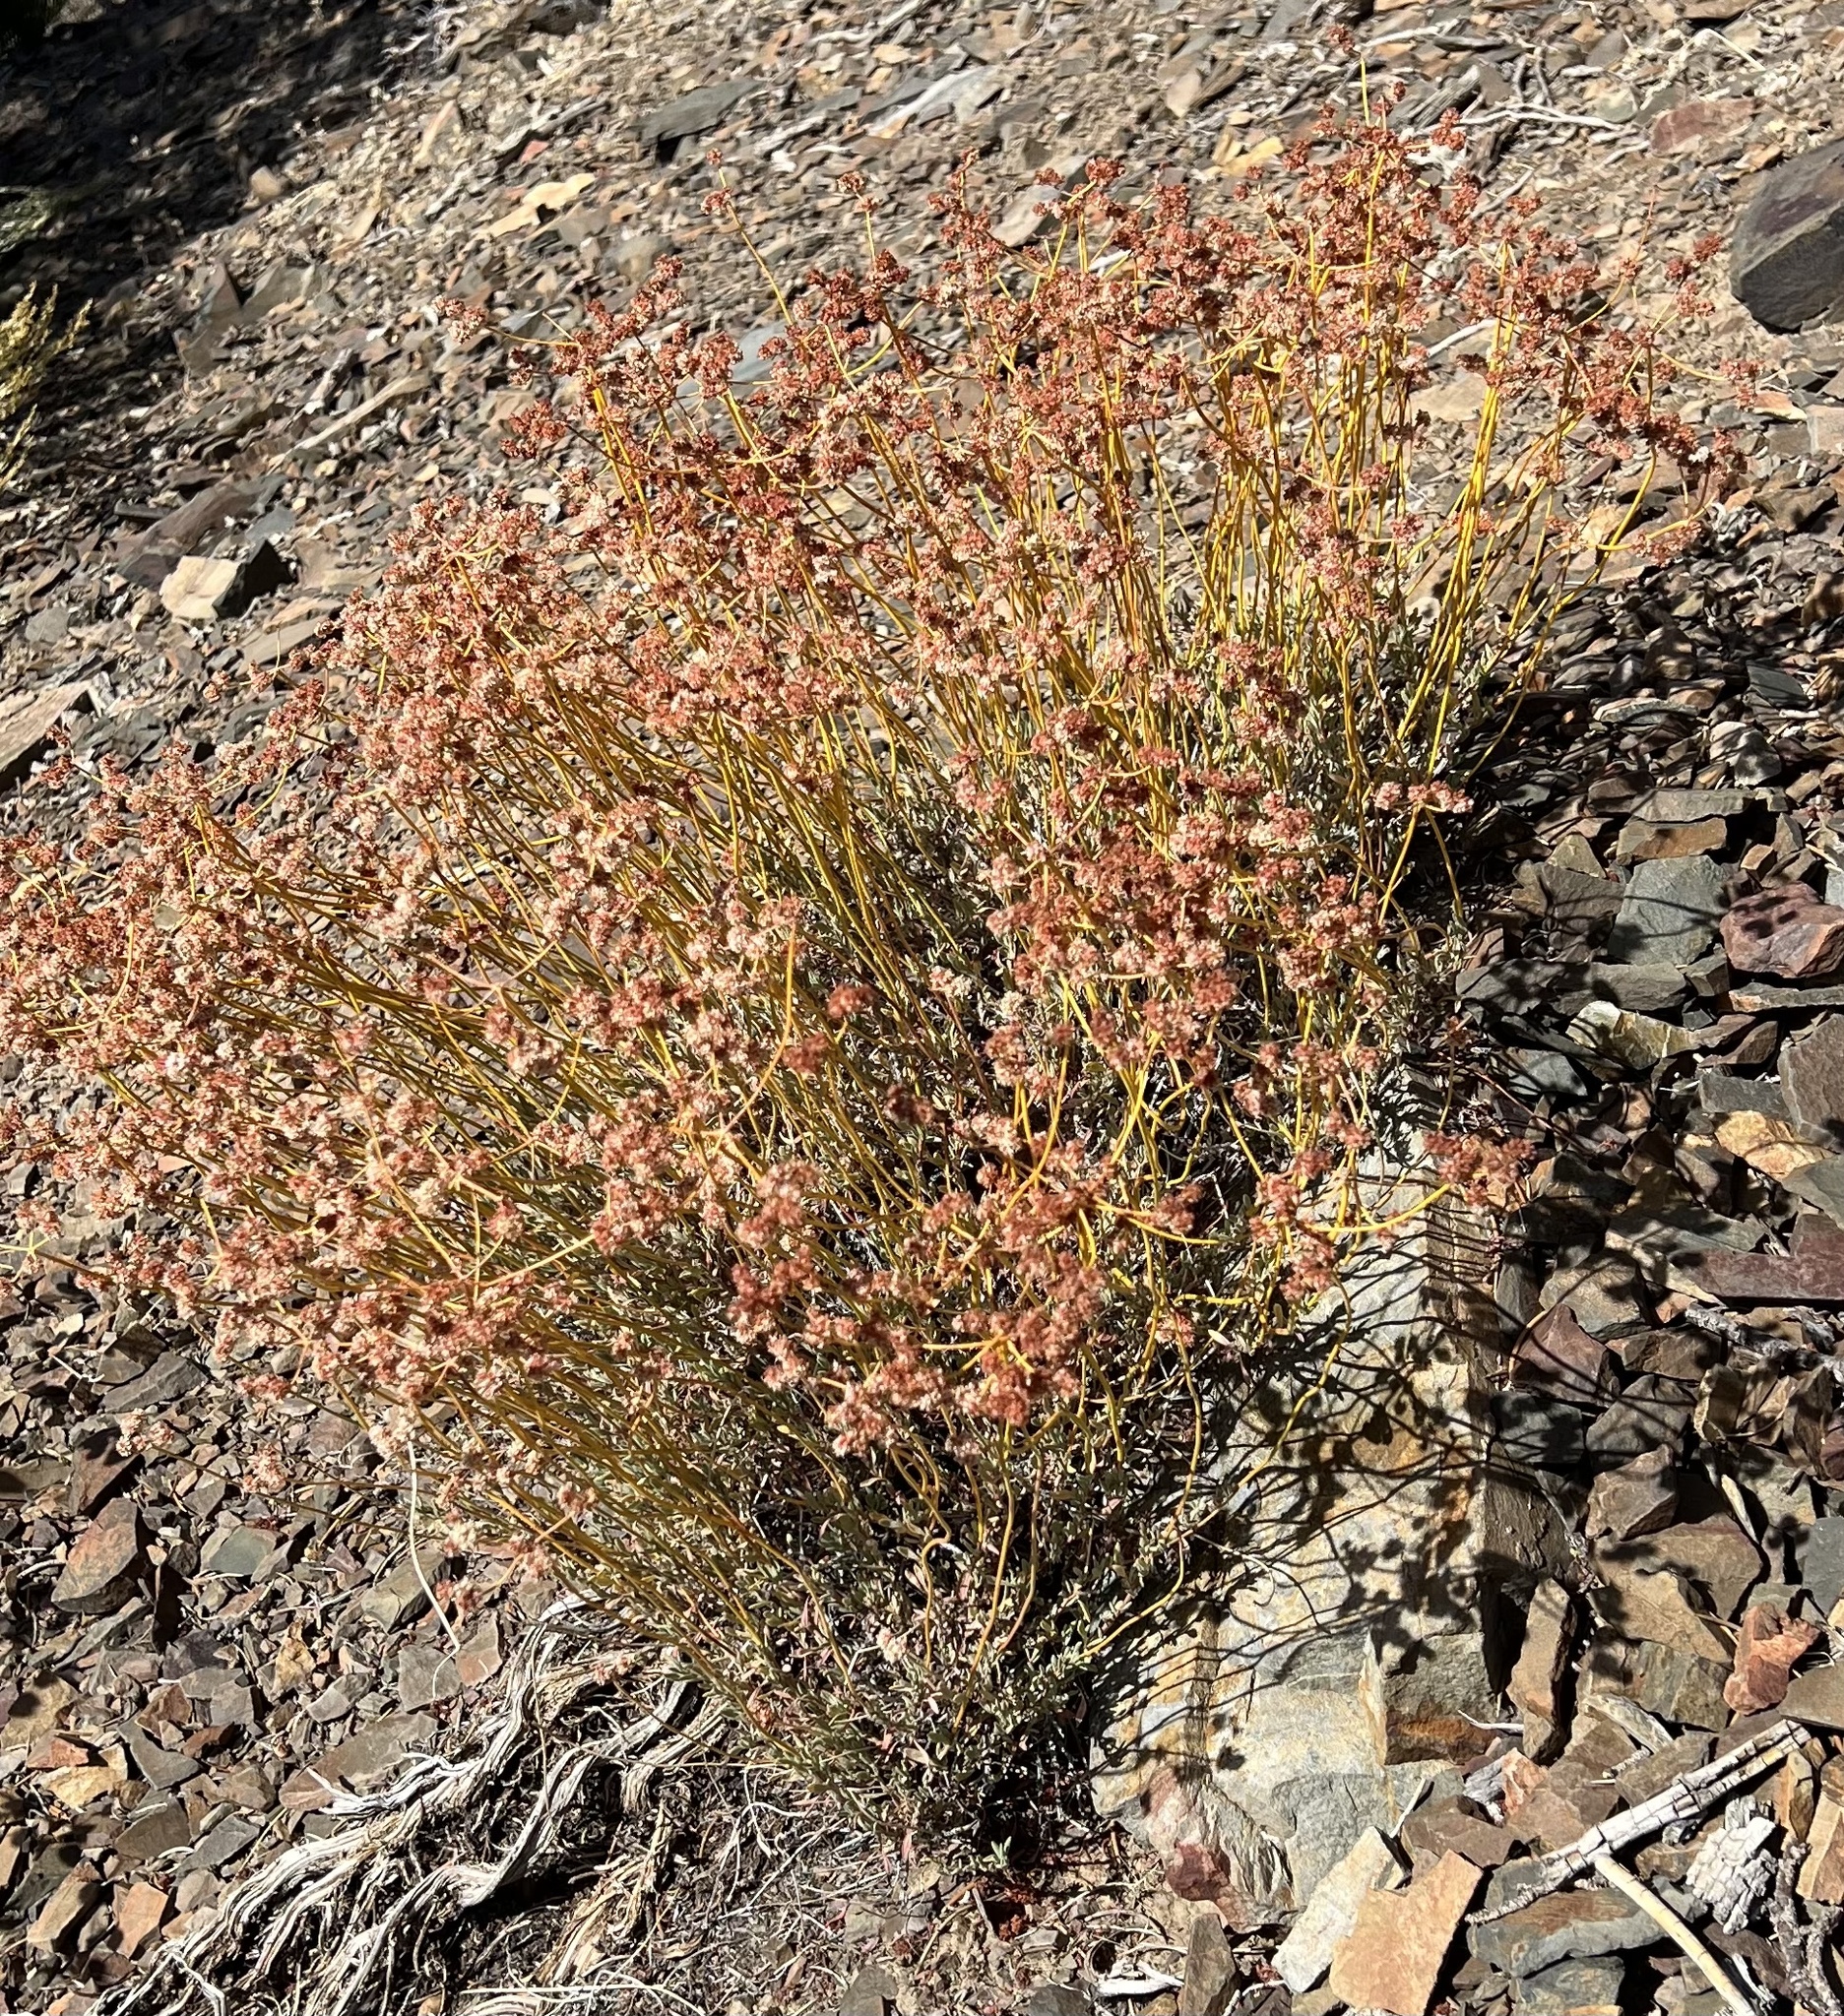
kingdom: Plantae
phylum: Tracheophyta
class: Magnoliopsida
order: Caryophyllales
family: Polygonaceae
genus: Eriogonum
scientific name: Eriogonum fasciculatum
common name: California wild buckwheat
